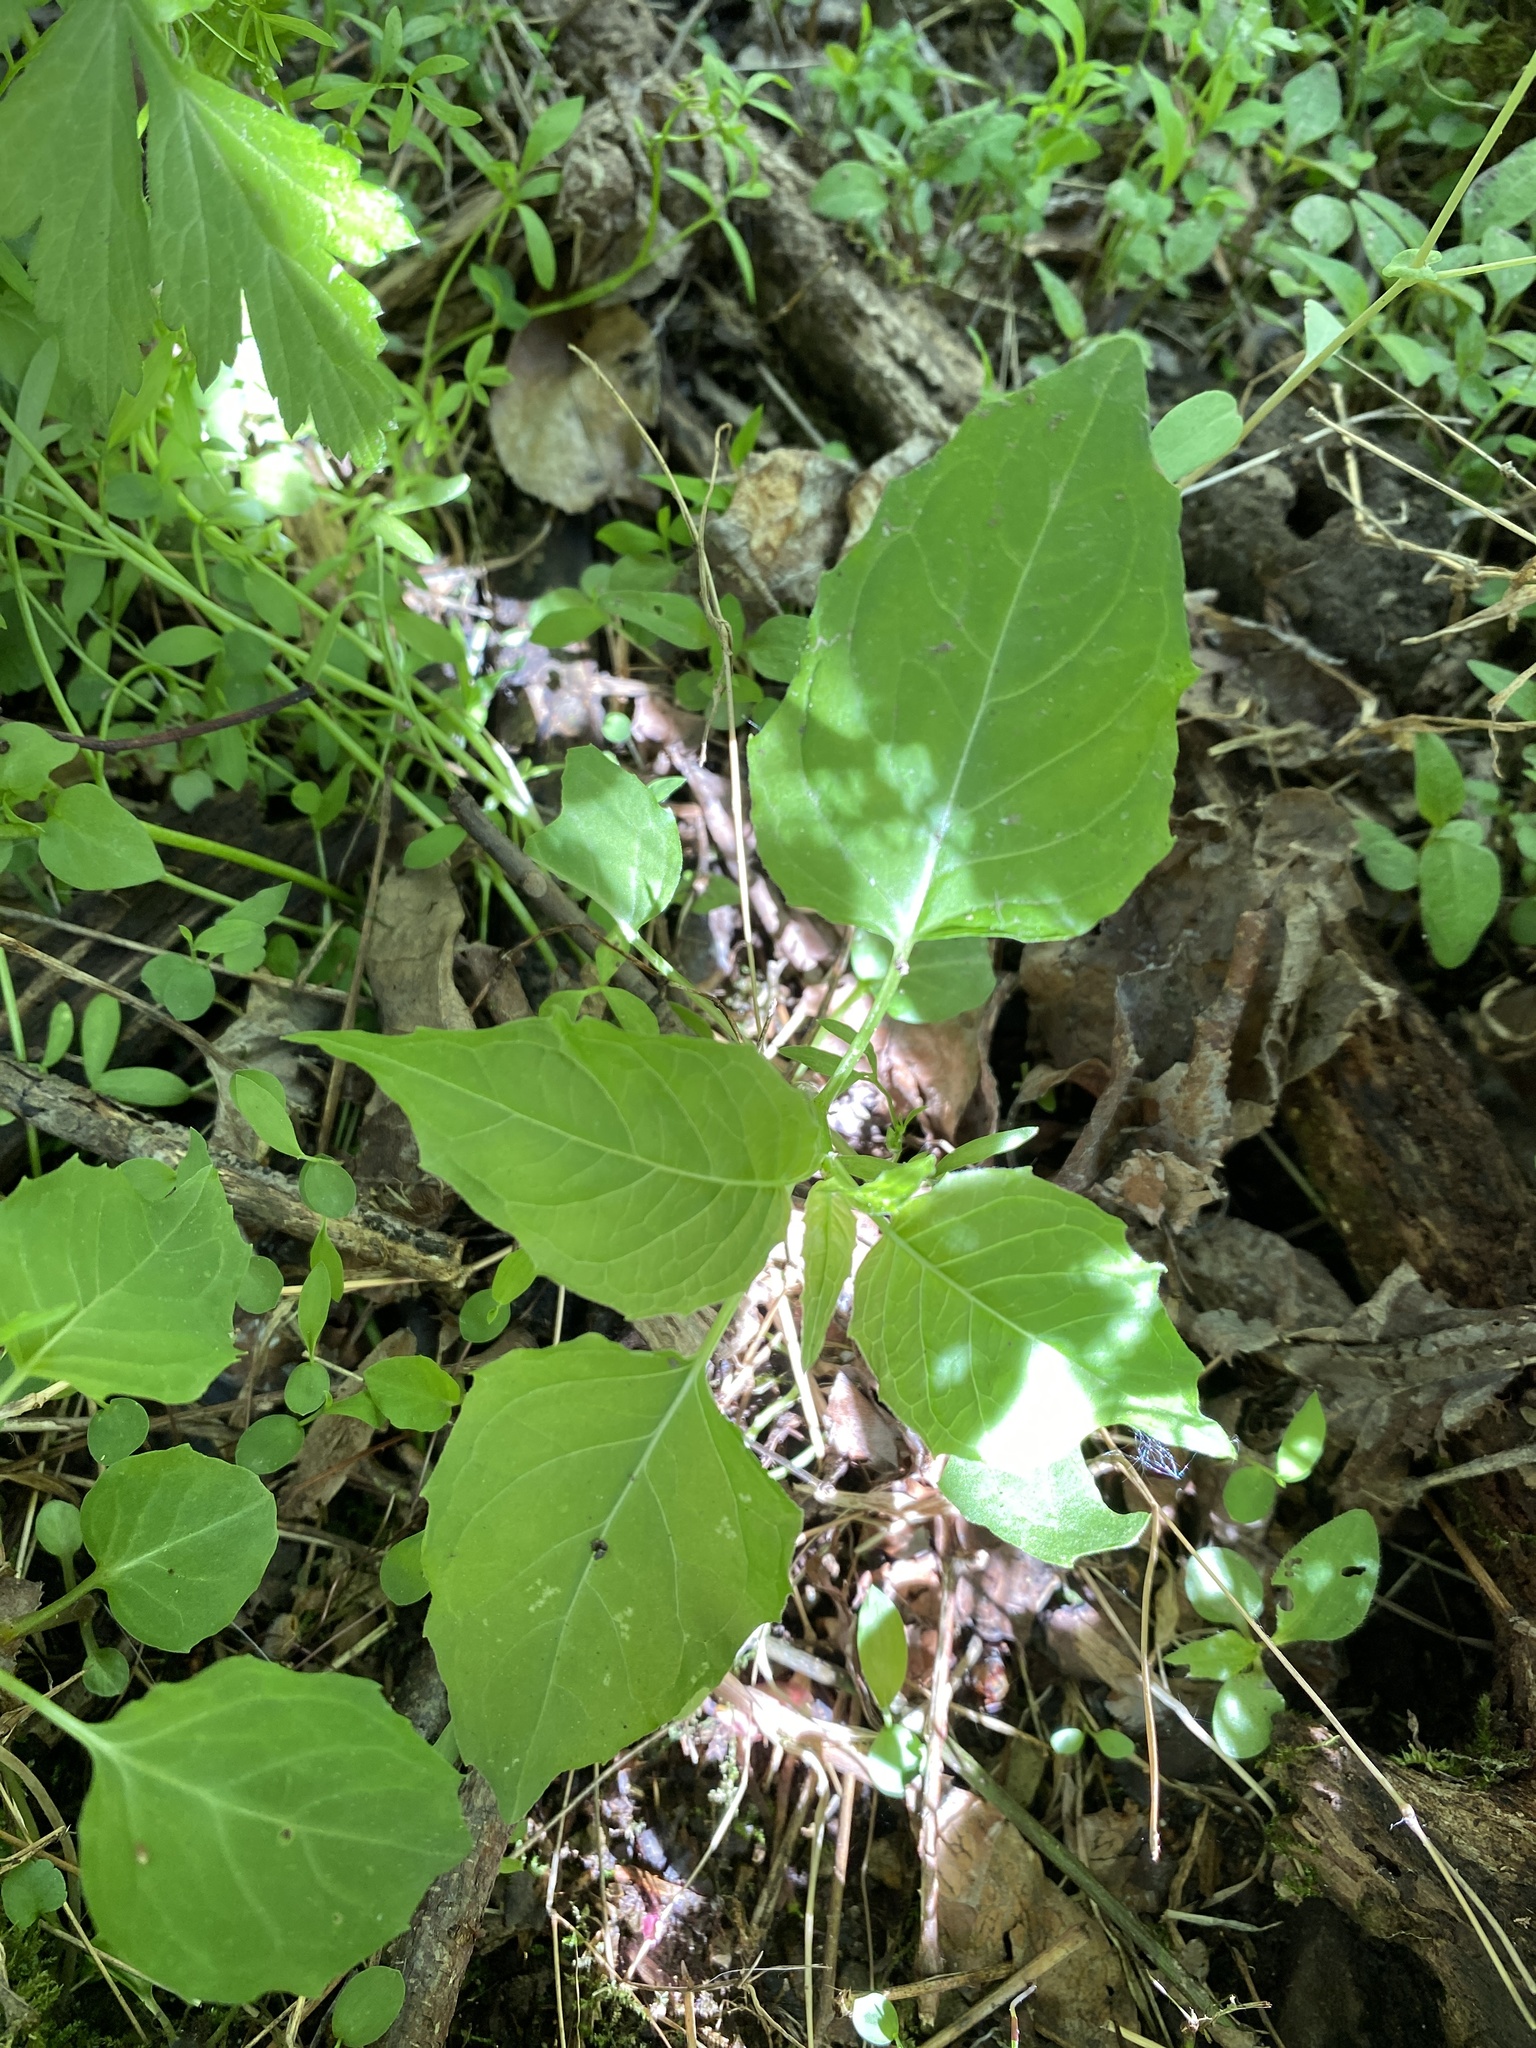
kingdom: Plantae
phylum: Tracheophyta
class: Magnoliopsida
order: Myrtales
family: Onagraceae
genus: Circaea
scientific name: Circaea canadensis
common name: Broad-leaved enchanter's nightshade
